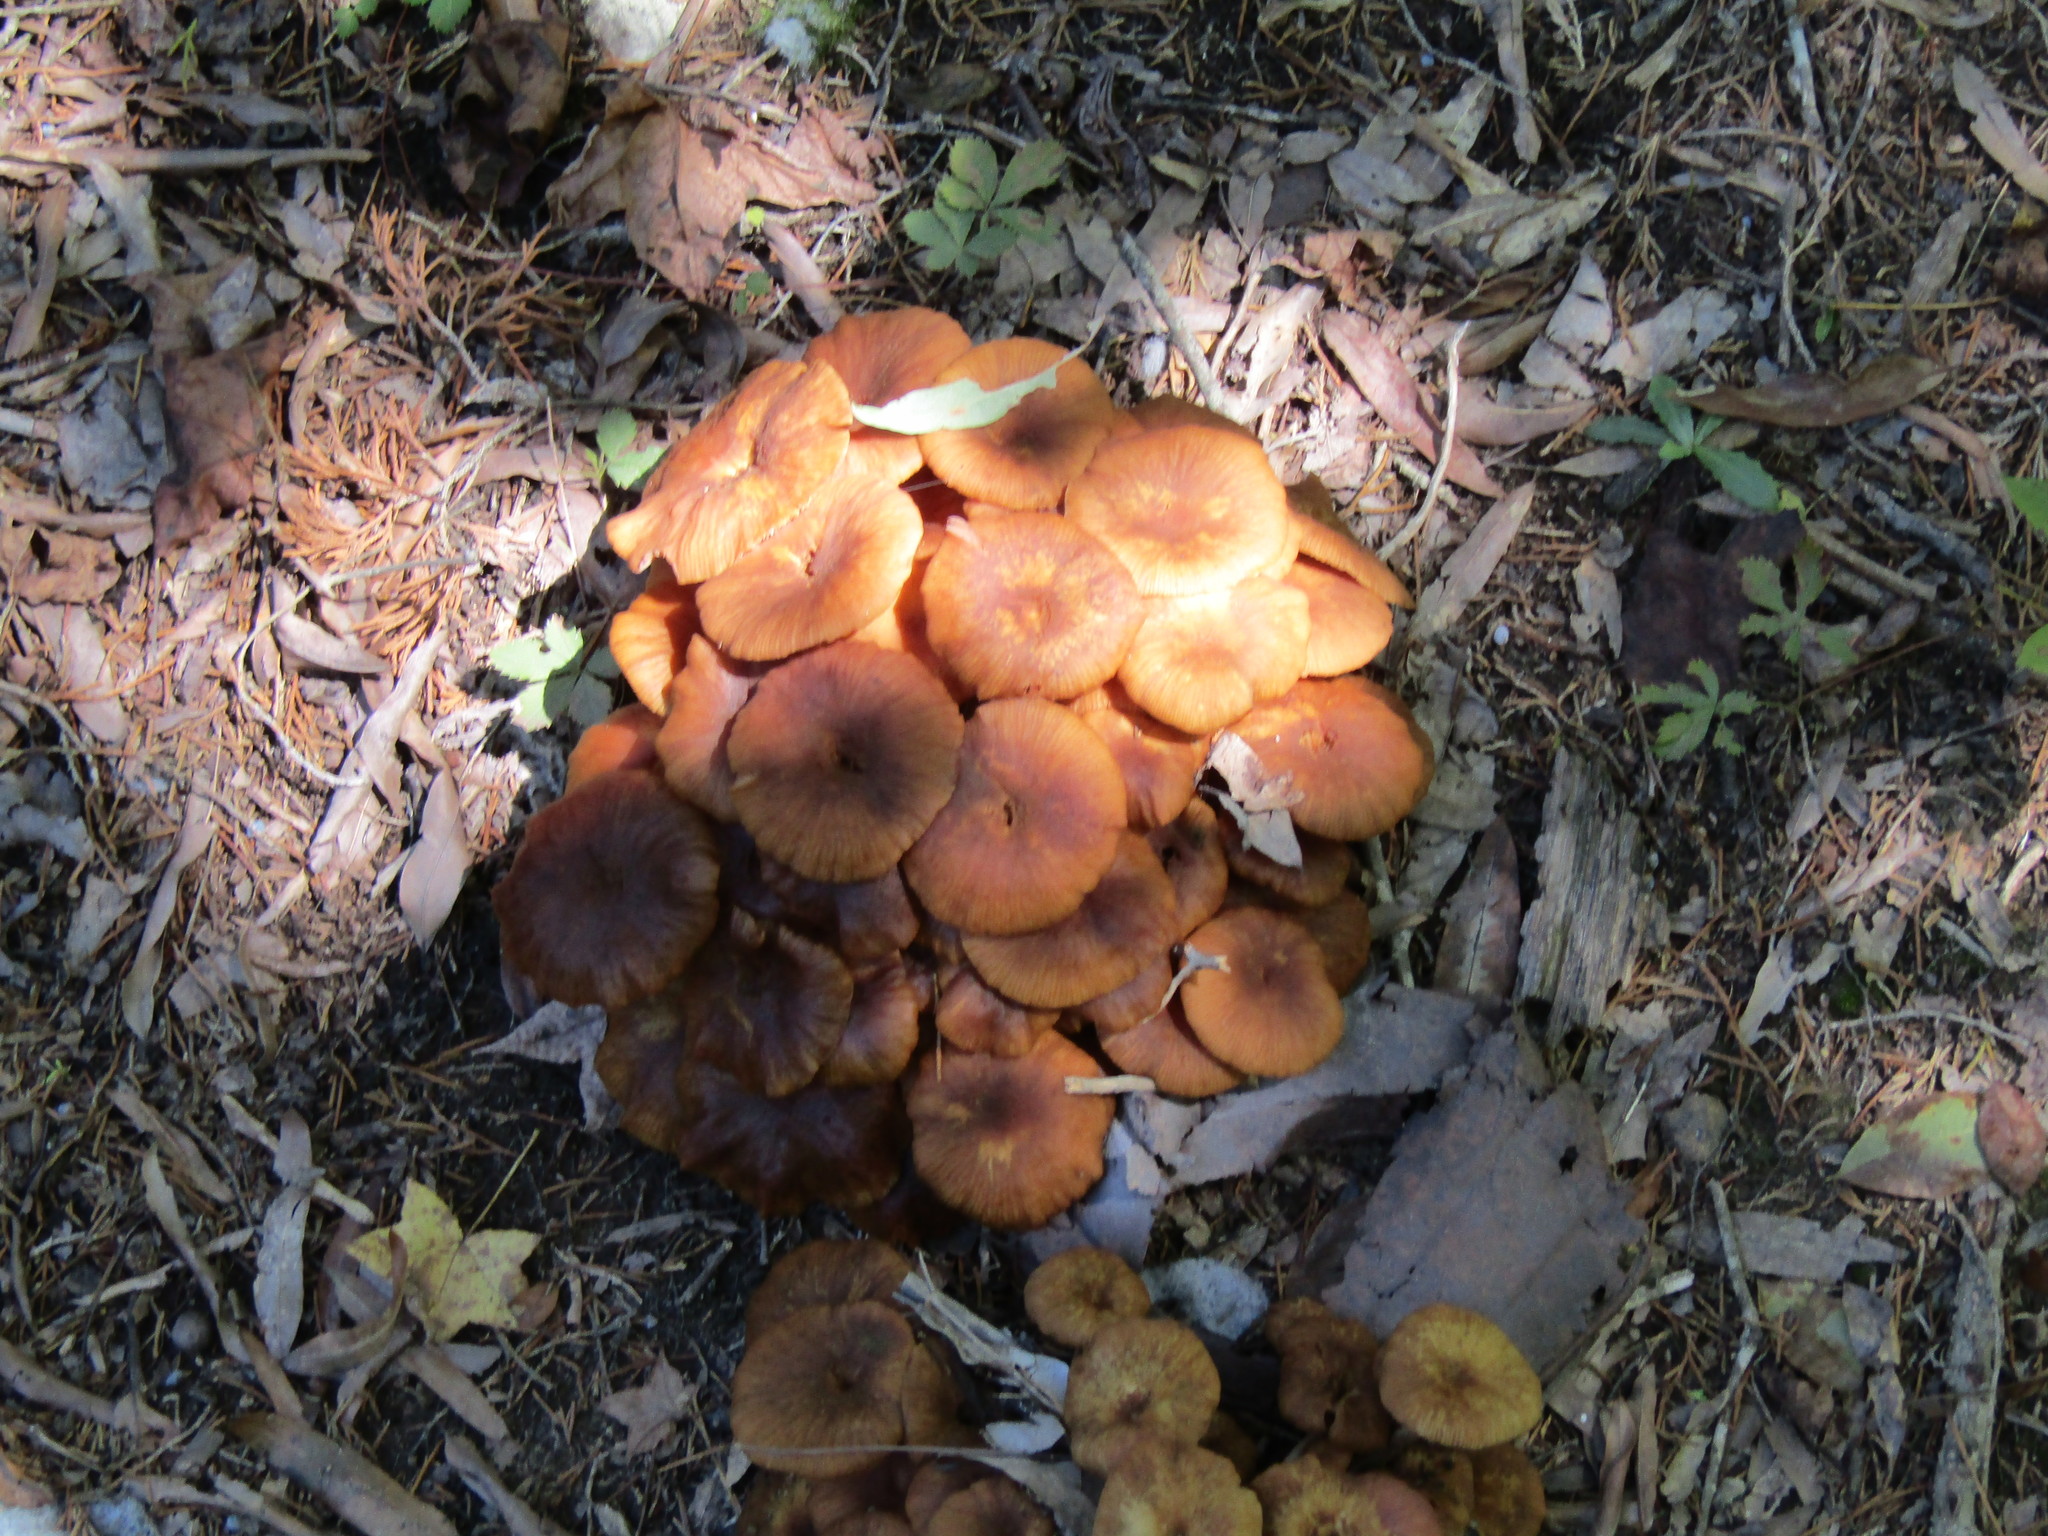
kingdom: Fungi
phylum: Basidiomycota
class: Agaricomycetes
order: Agaricales
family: Physalacriaceae
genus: Desarmillaria
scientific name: Desarmillaria caespitosa
